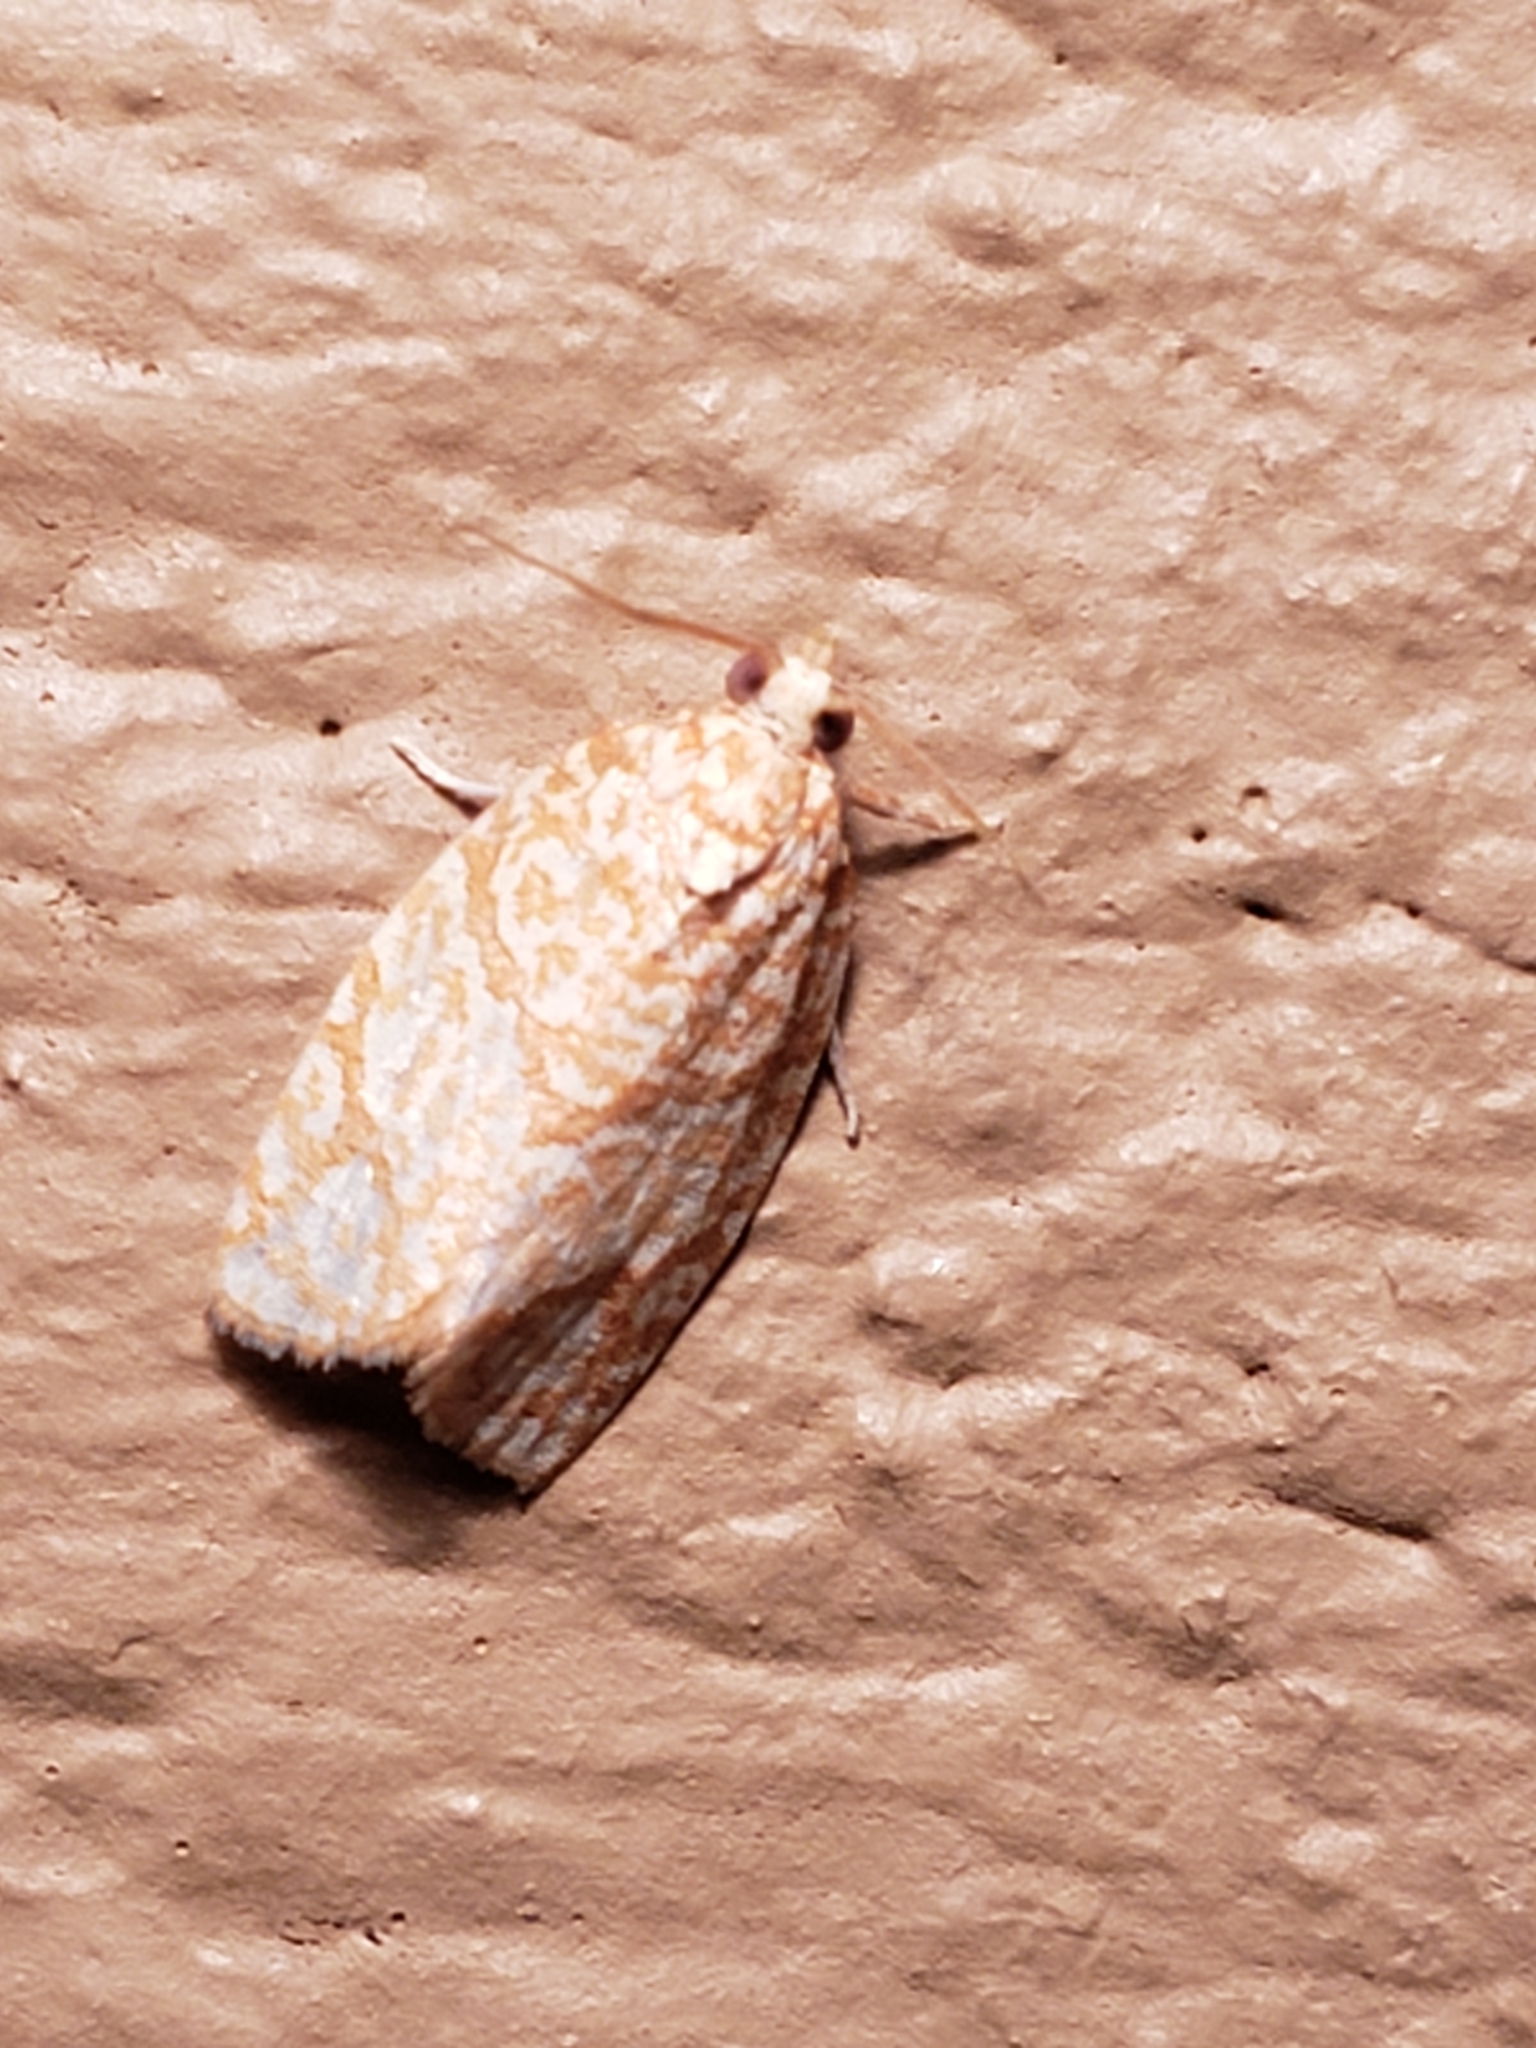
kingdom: Animalia
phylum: Arthropoda
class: Insecta
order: Lepidoptera
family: Tortricidae
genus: Argyrotaenia
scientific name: Argyrotaenia quercifoliana
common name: Yellow-winged oak leafroller moth
